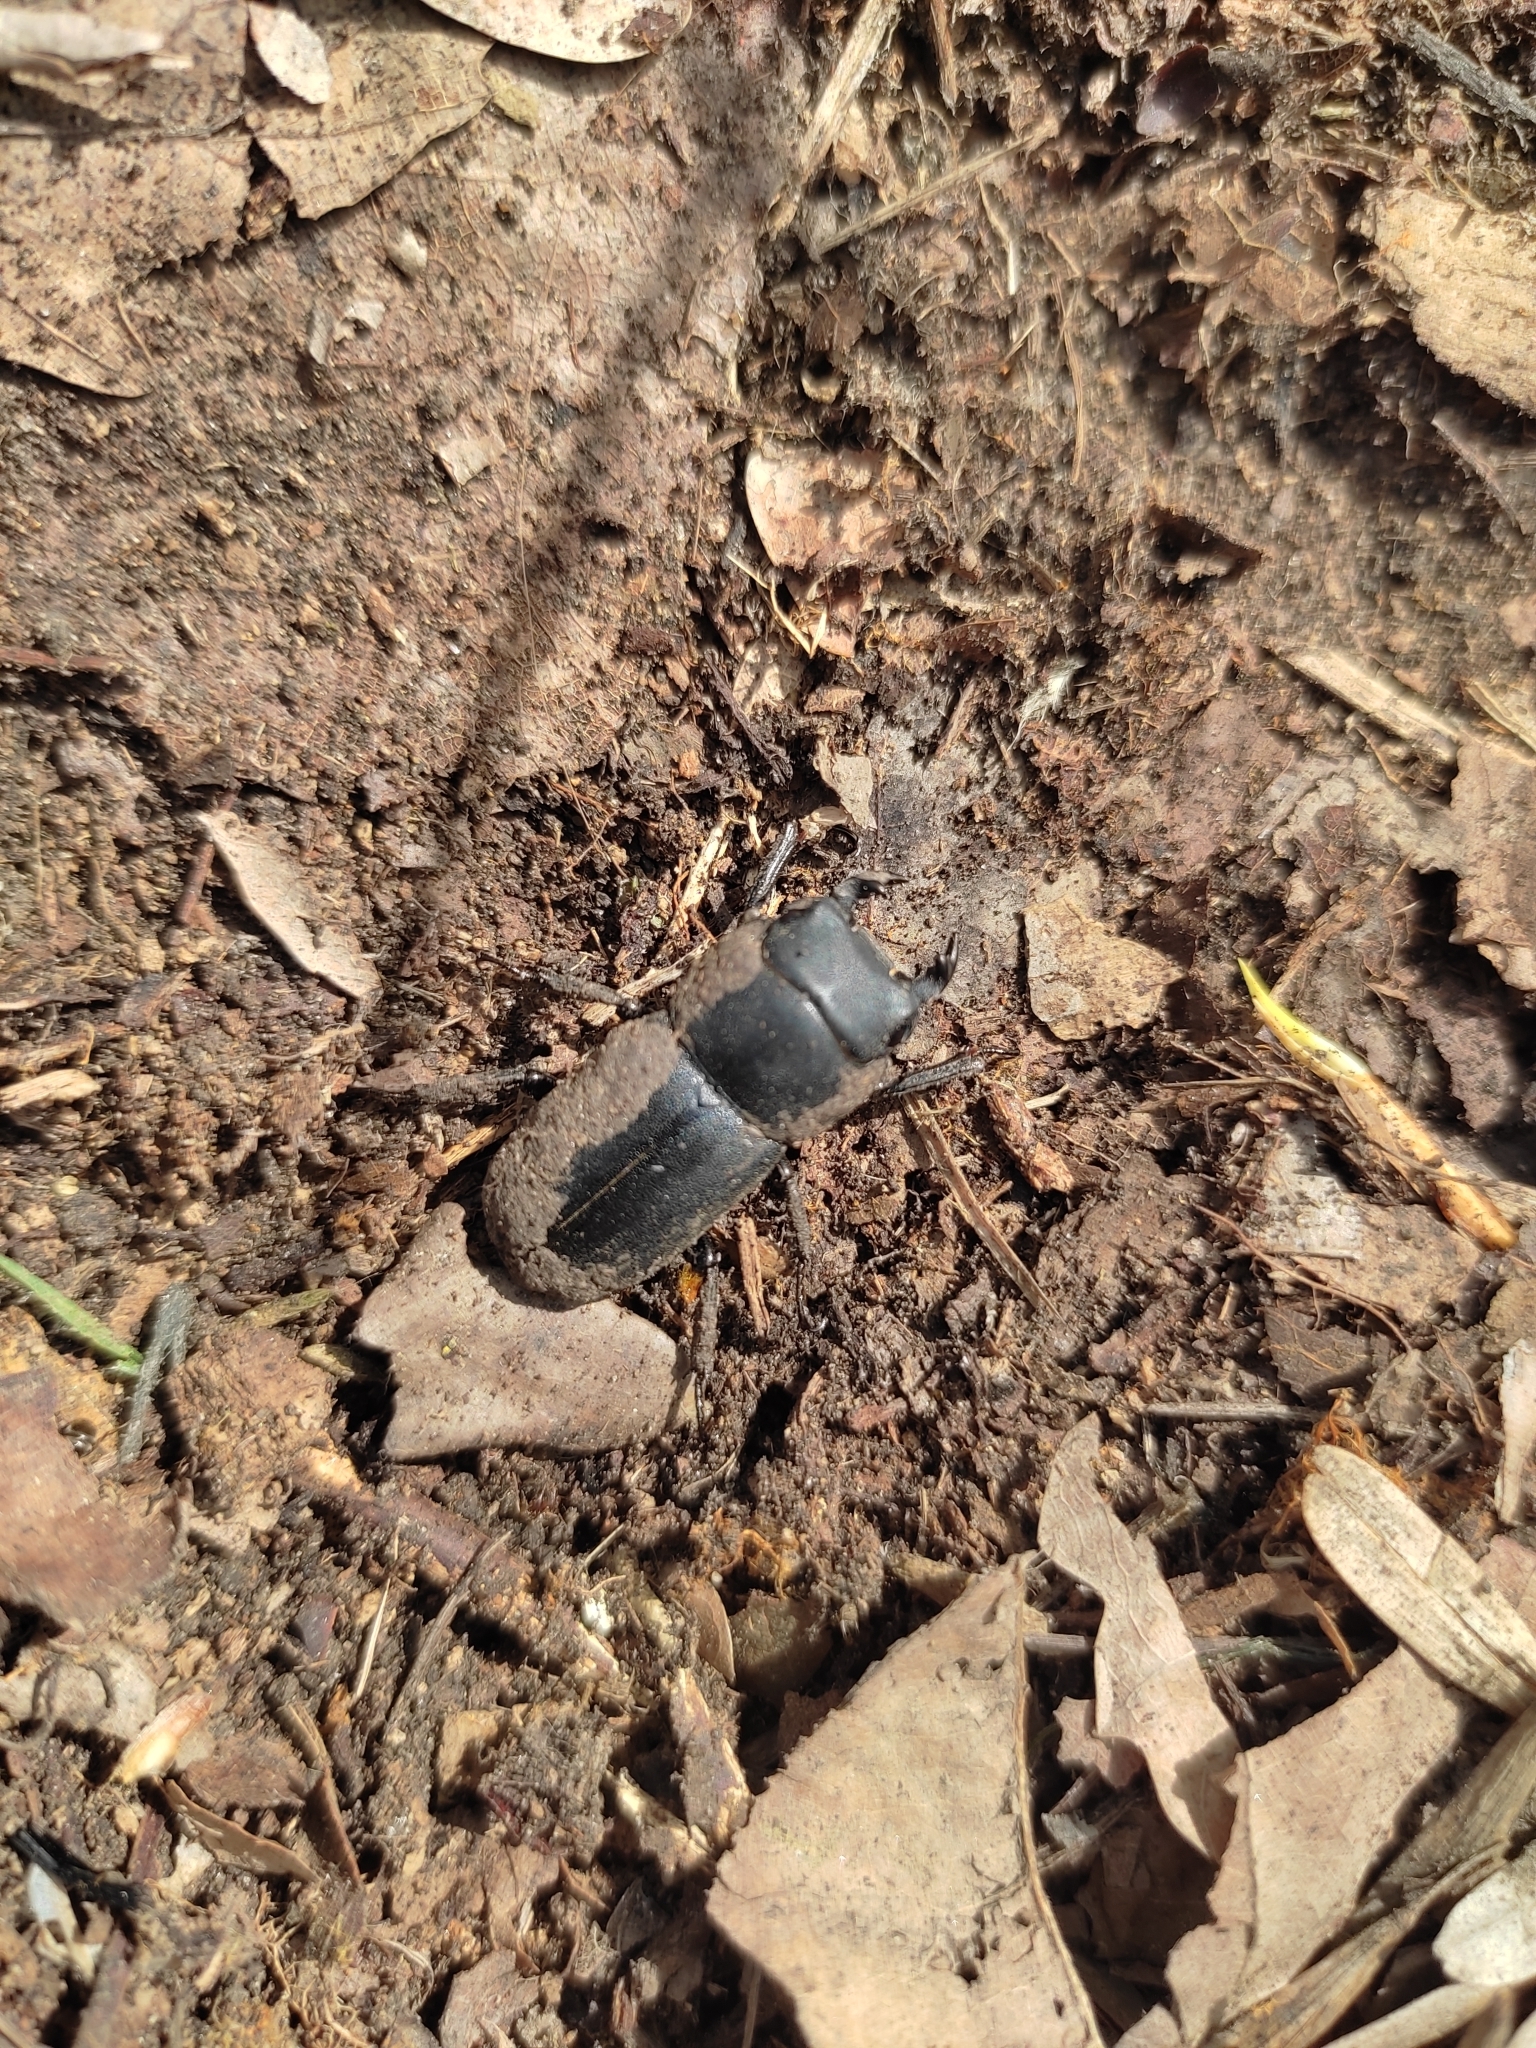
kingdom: Animalia
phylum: Arthropoda
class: Insecta
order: Coleoptera
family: Lucanidae
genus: Dorcus
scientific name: Dorcus parallelipipedus
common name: Lesser stag beetle
